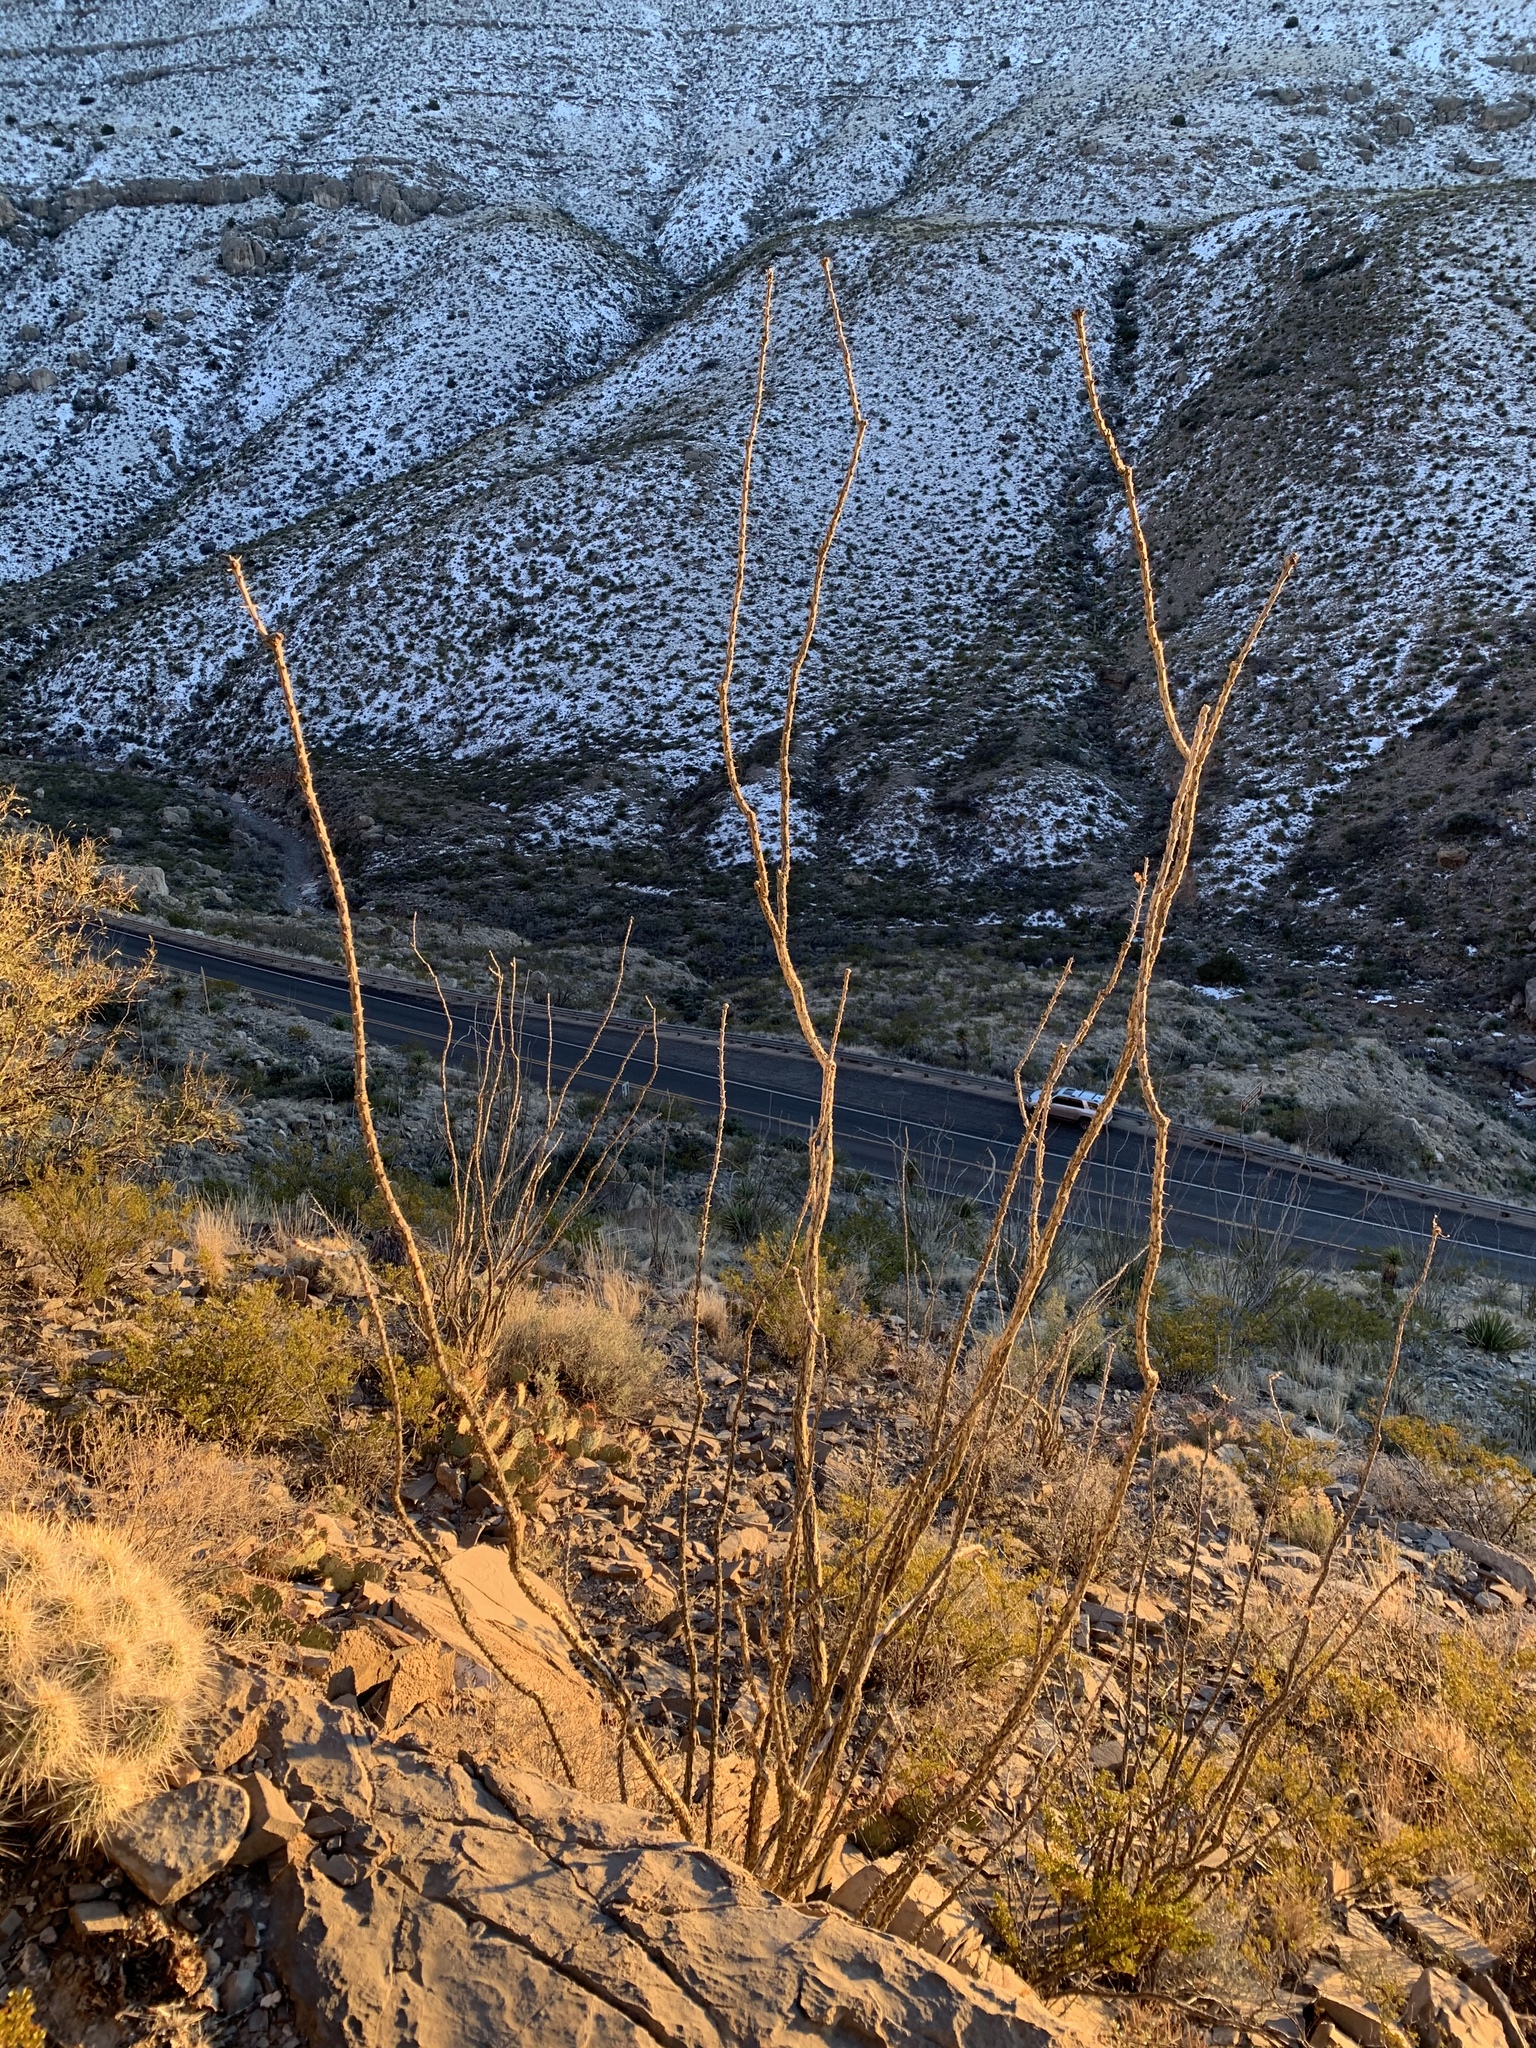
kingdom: Plantae
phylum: Tracheophyta
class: Magnoliopsida
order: Ericales
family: Fouquieriaceae
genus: Fouquieria
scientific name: Fouquieria splendens
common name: Vine-cactus
